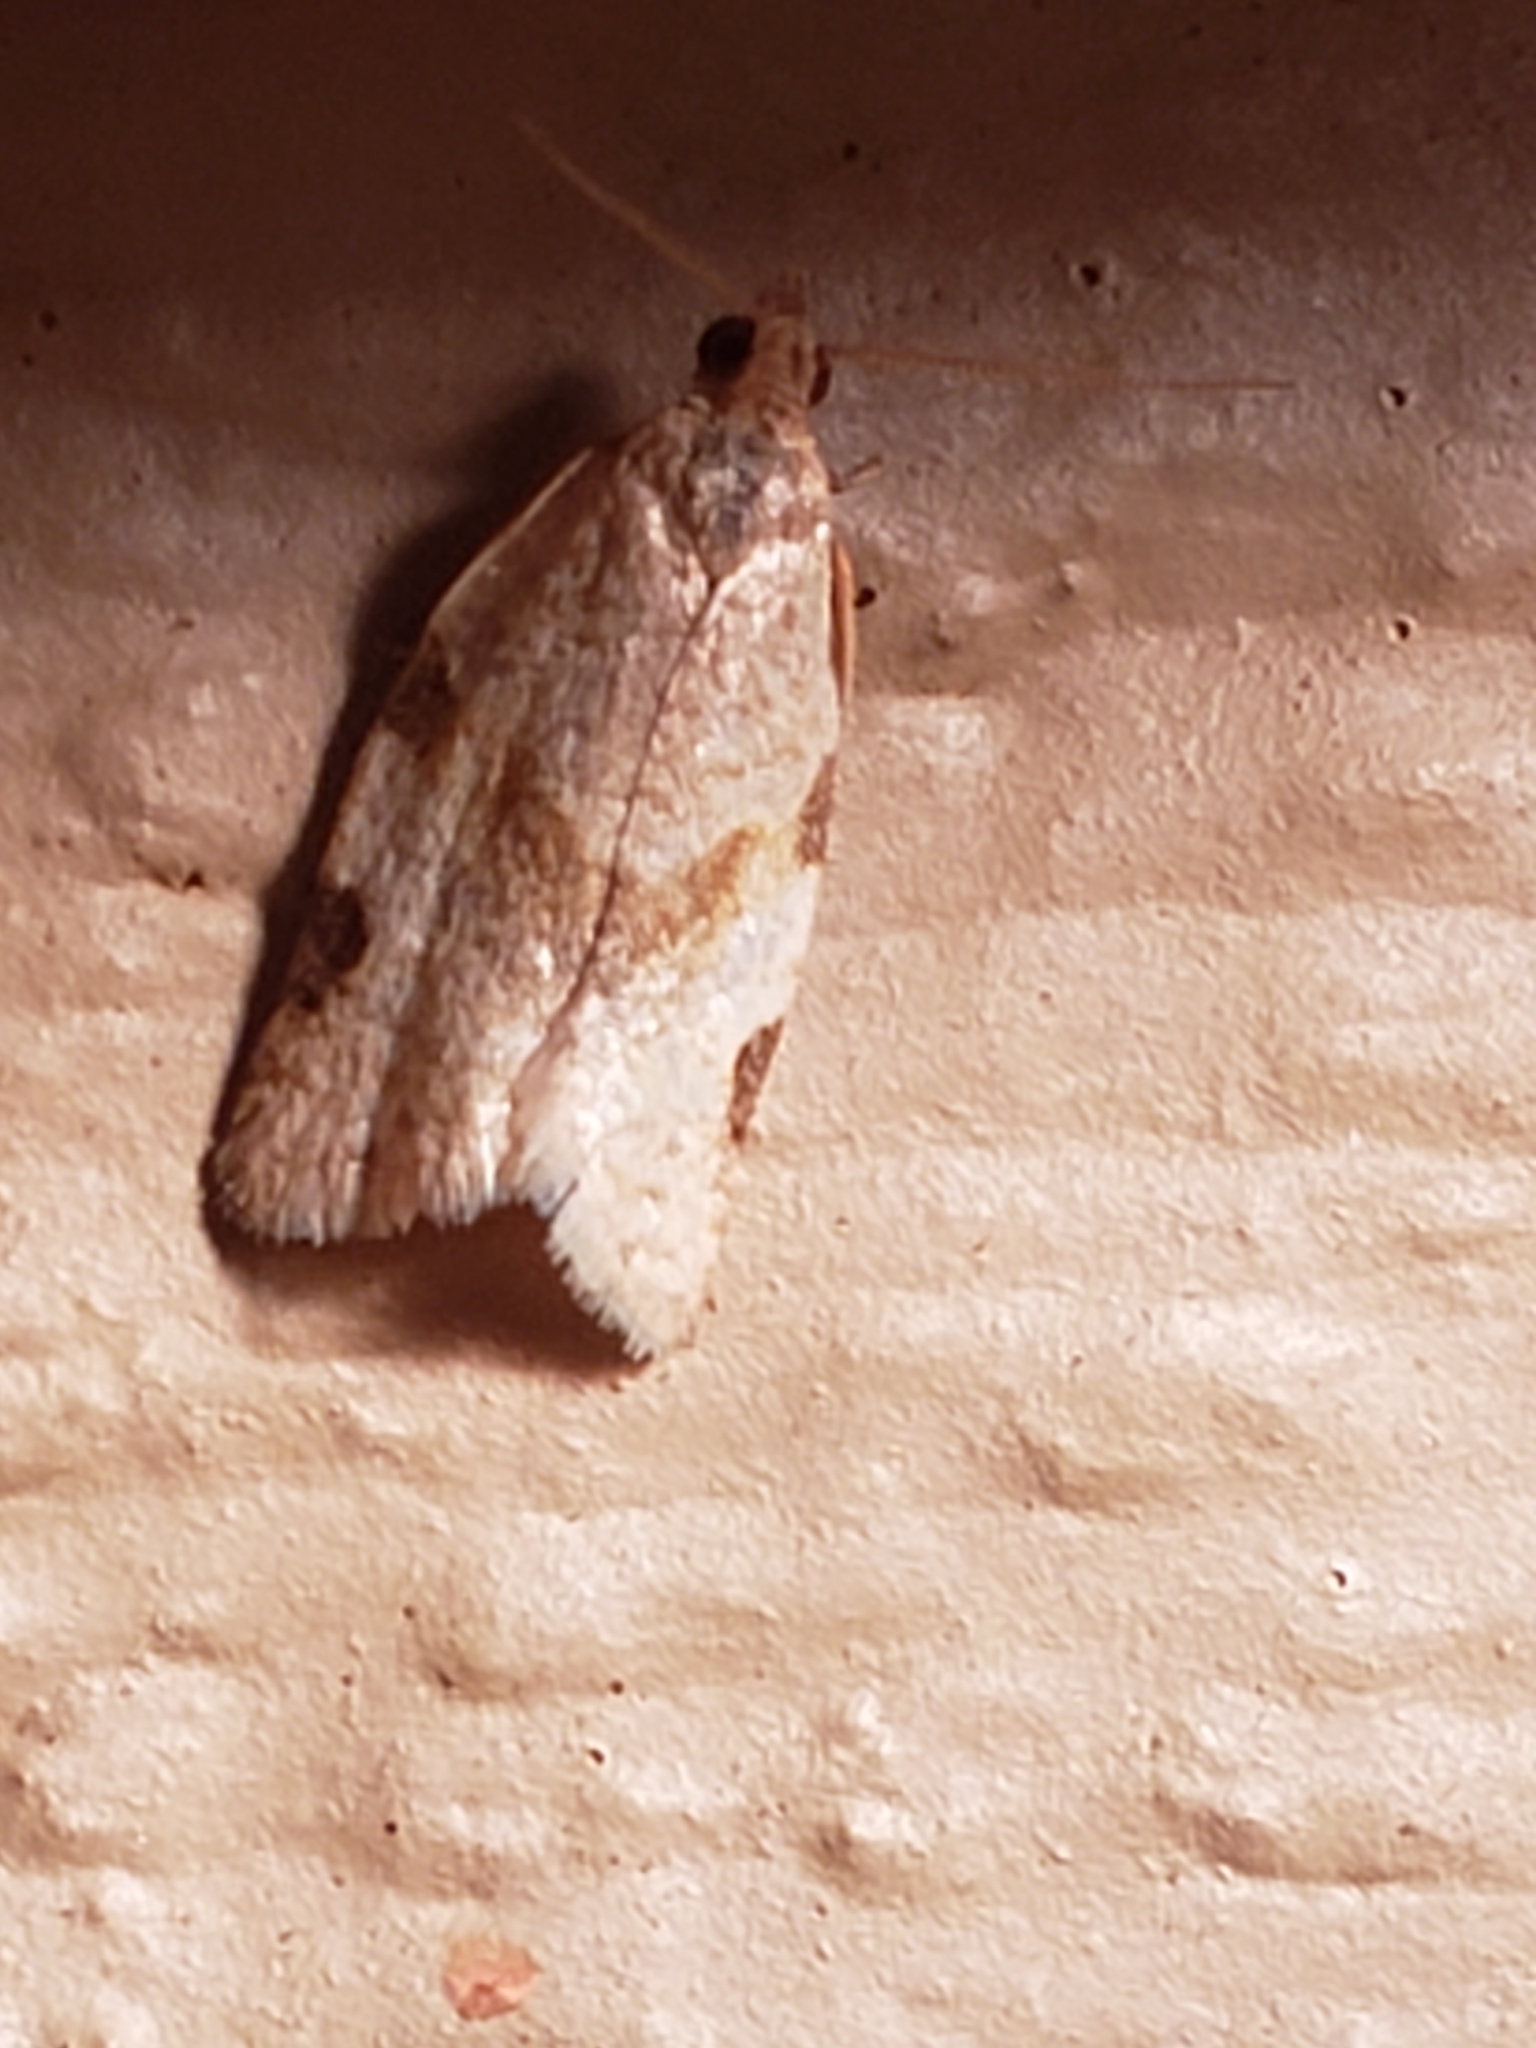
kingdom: Animalia
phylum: Arthropoda
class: Insecta
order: Lepidoptera
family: Tortricidae
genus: Clepsis
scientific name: Clepsis virescana
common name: Greenish apple moth
